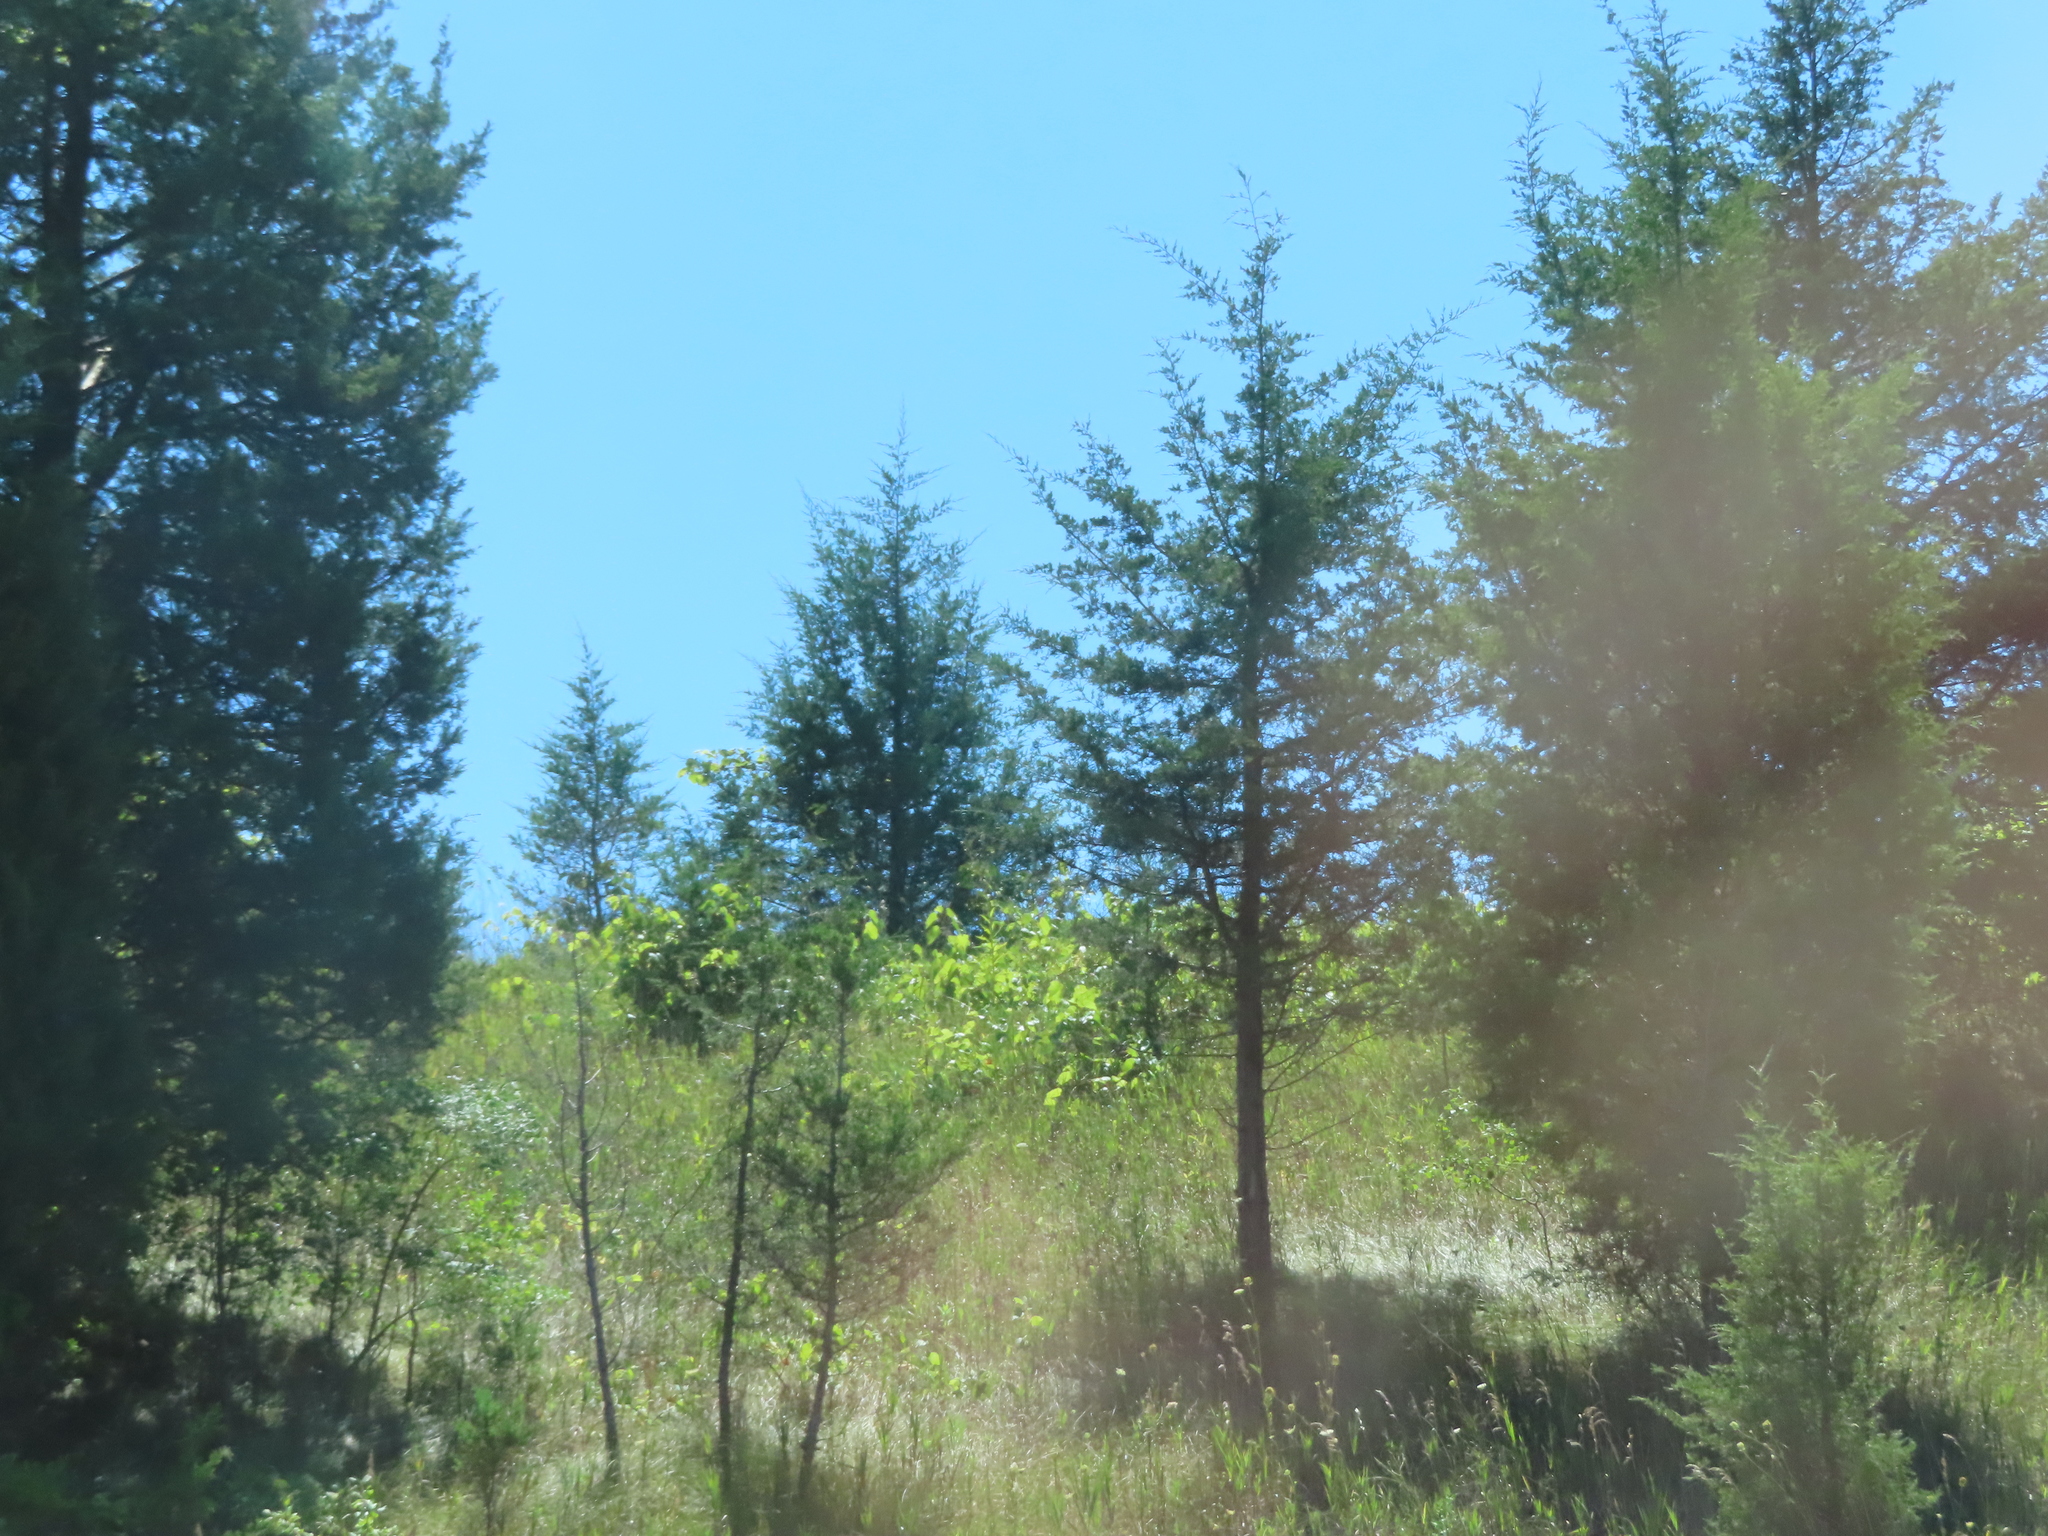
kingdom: Plantae
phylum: Tracheophyta
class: Pinopsida
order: Pinales
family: Cupressaceae
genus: Juniperus
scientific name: Juniperus virginiana
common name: Red juniper
